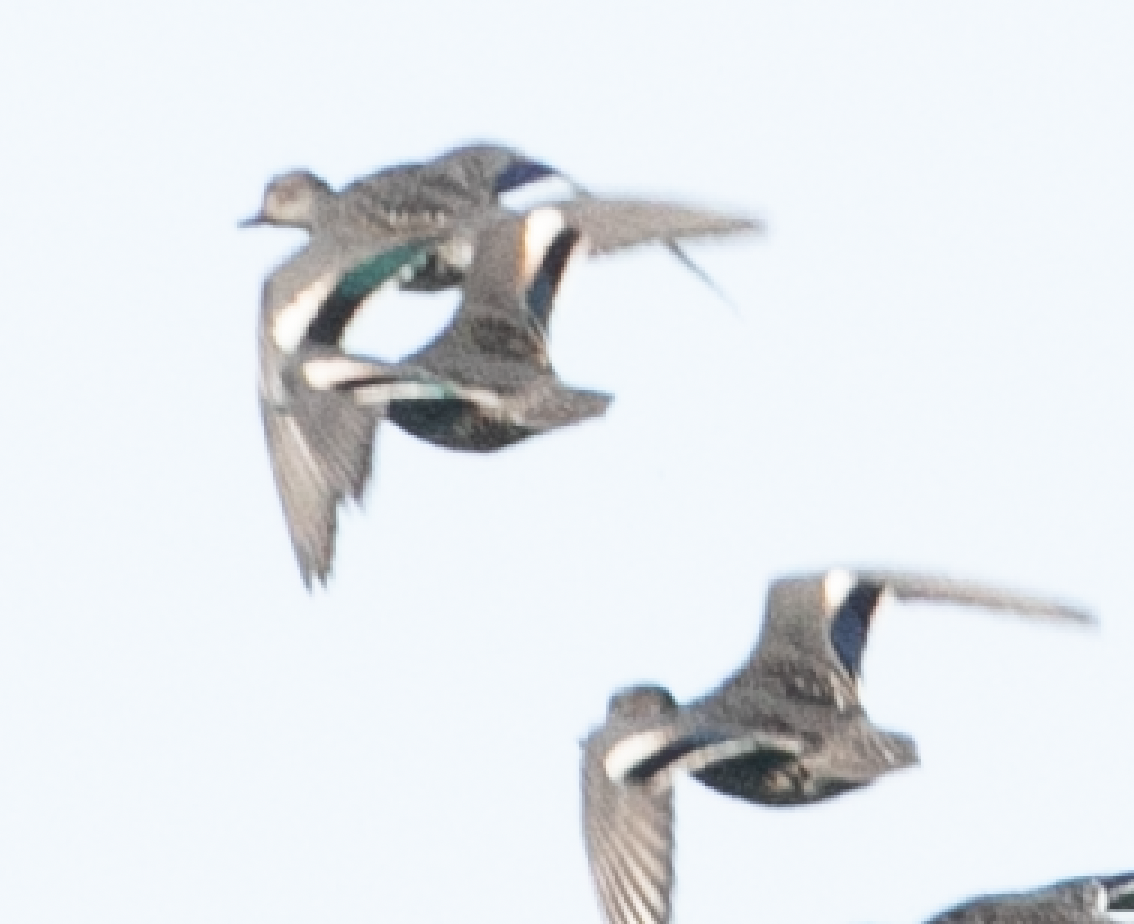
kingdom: Animalia
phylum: Chordata
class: Aves
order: Anseriformes
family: Anatidae
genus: Anas
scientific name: Anas crecca
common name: Eurasian teal
